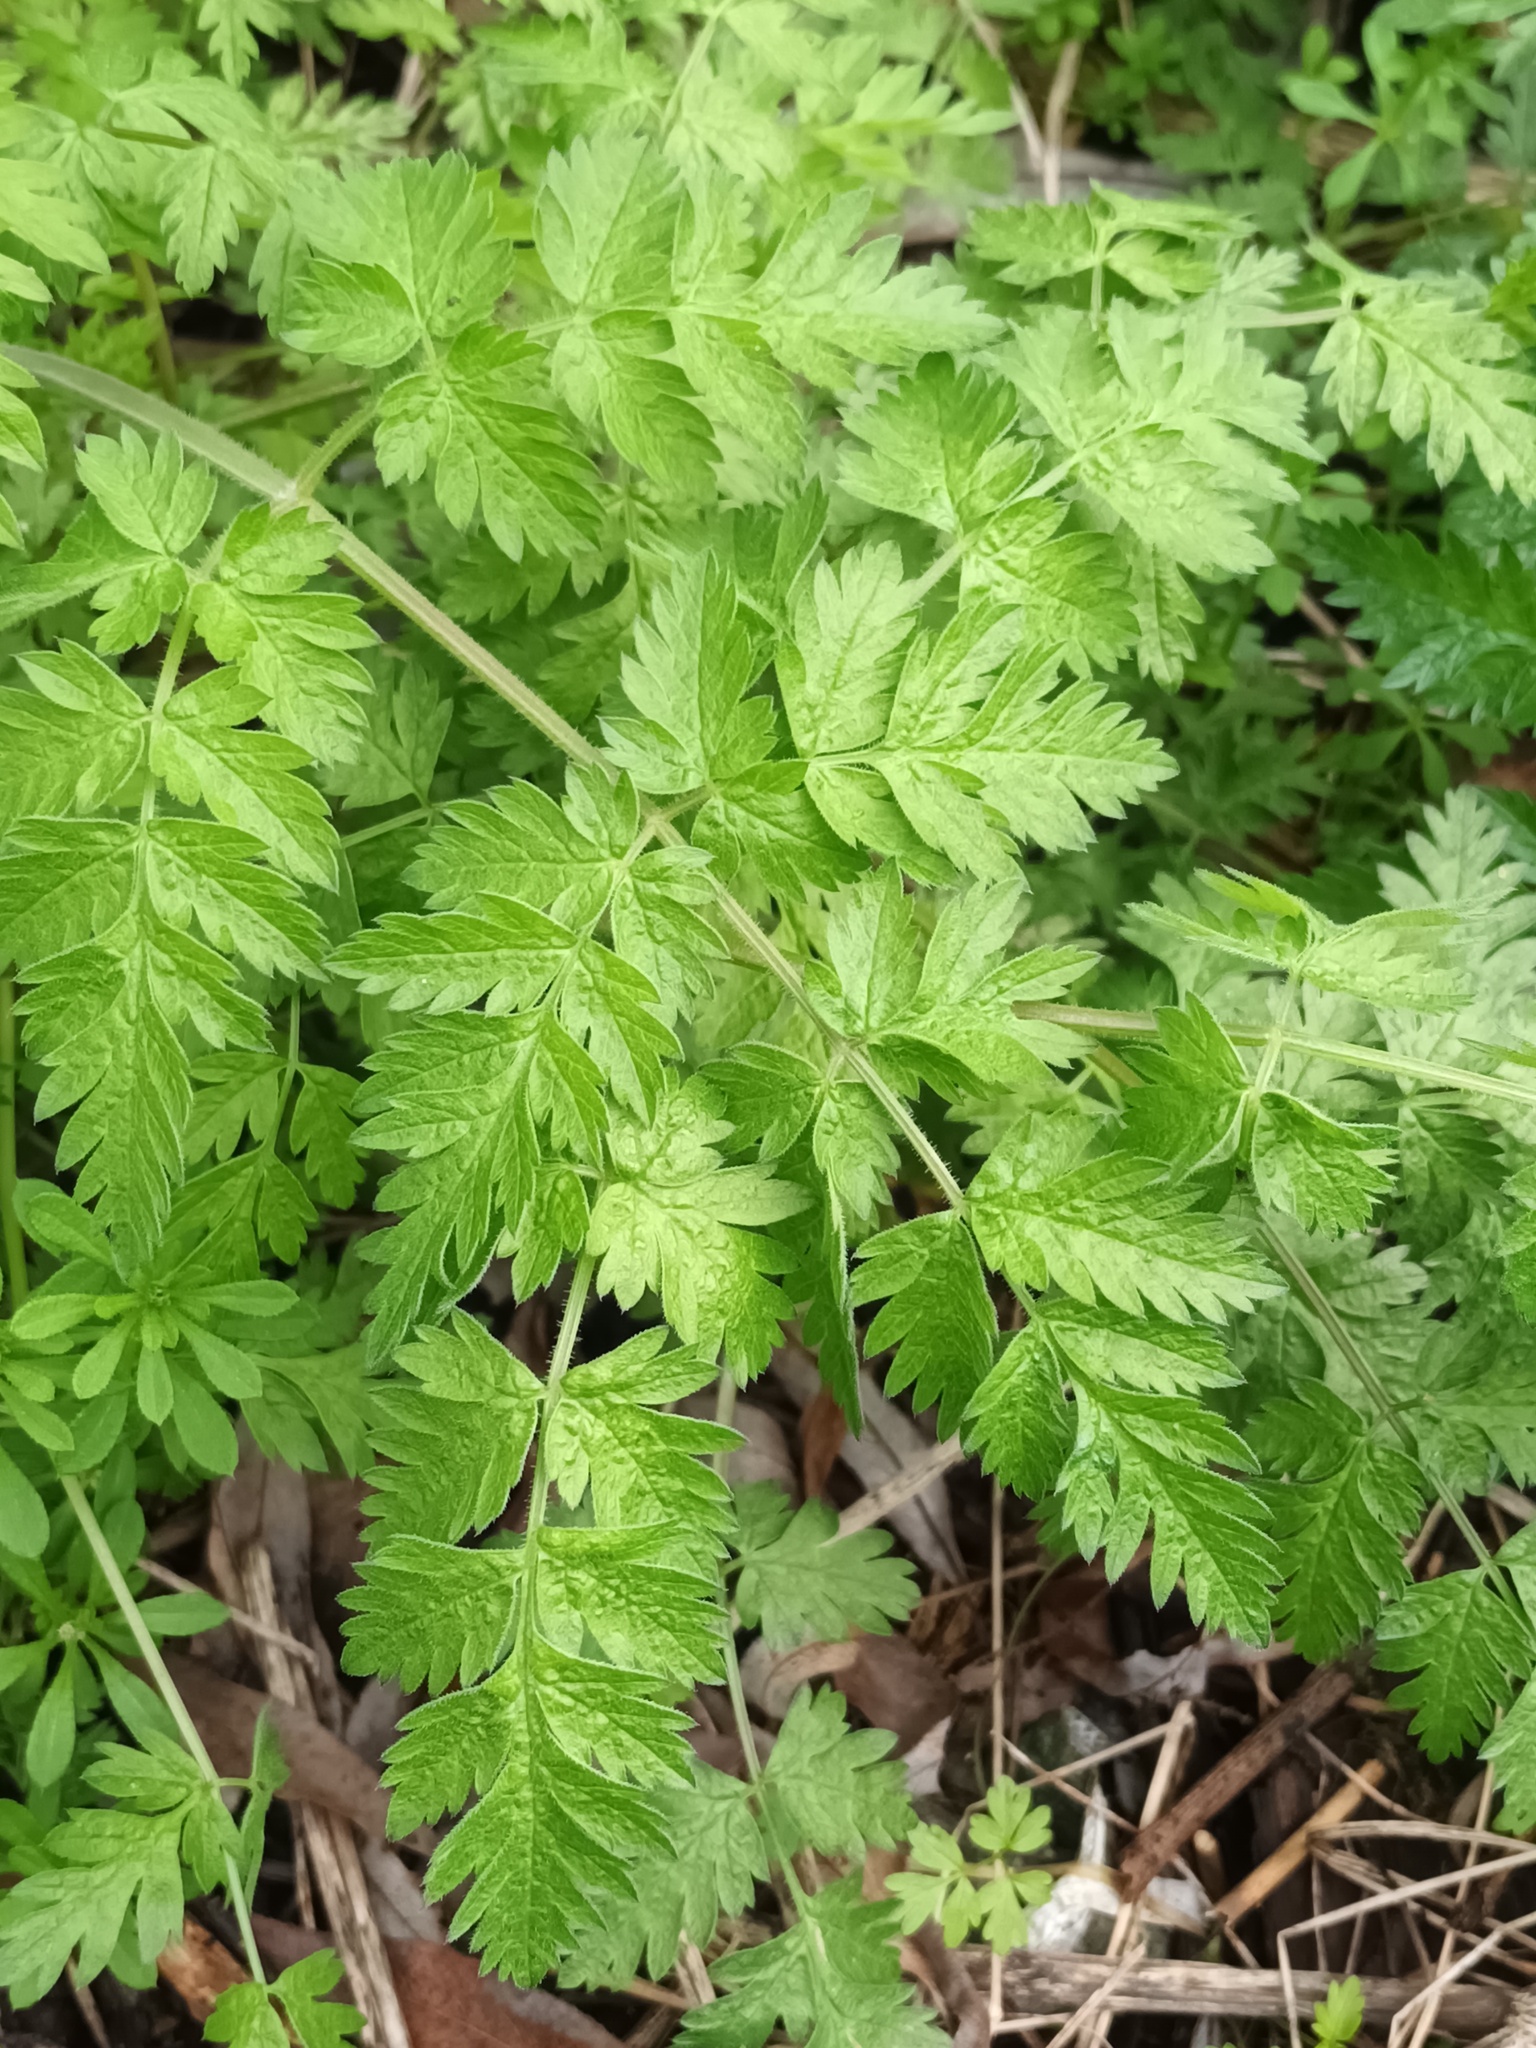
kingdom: Plantae
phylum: Tracheophyta
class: Magnoliopsida
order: Apiales
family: Apiaceae
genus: Anthriscus
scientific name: Anthriscus sylvestris
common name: Cow parsley
